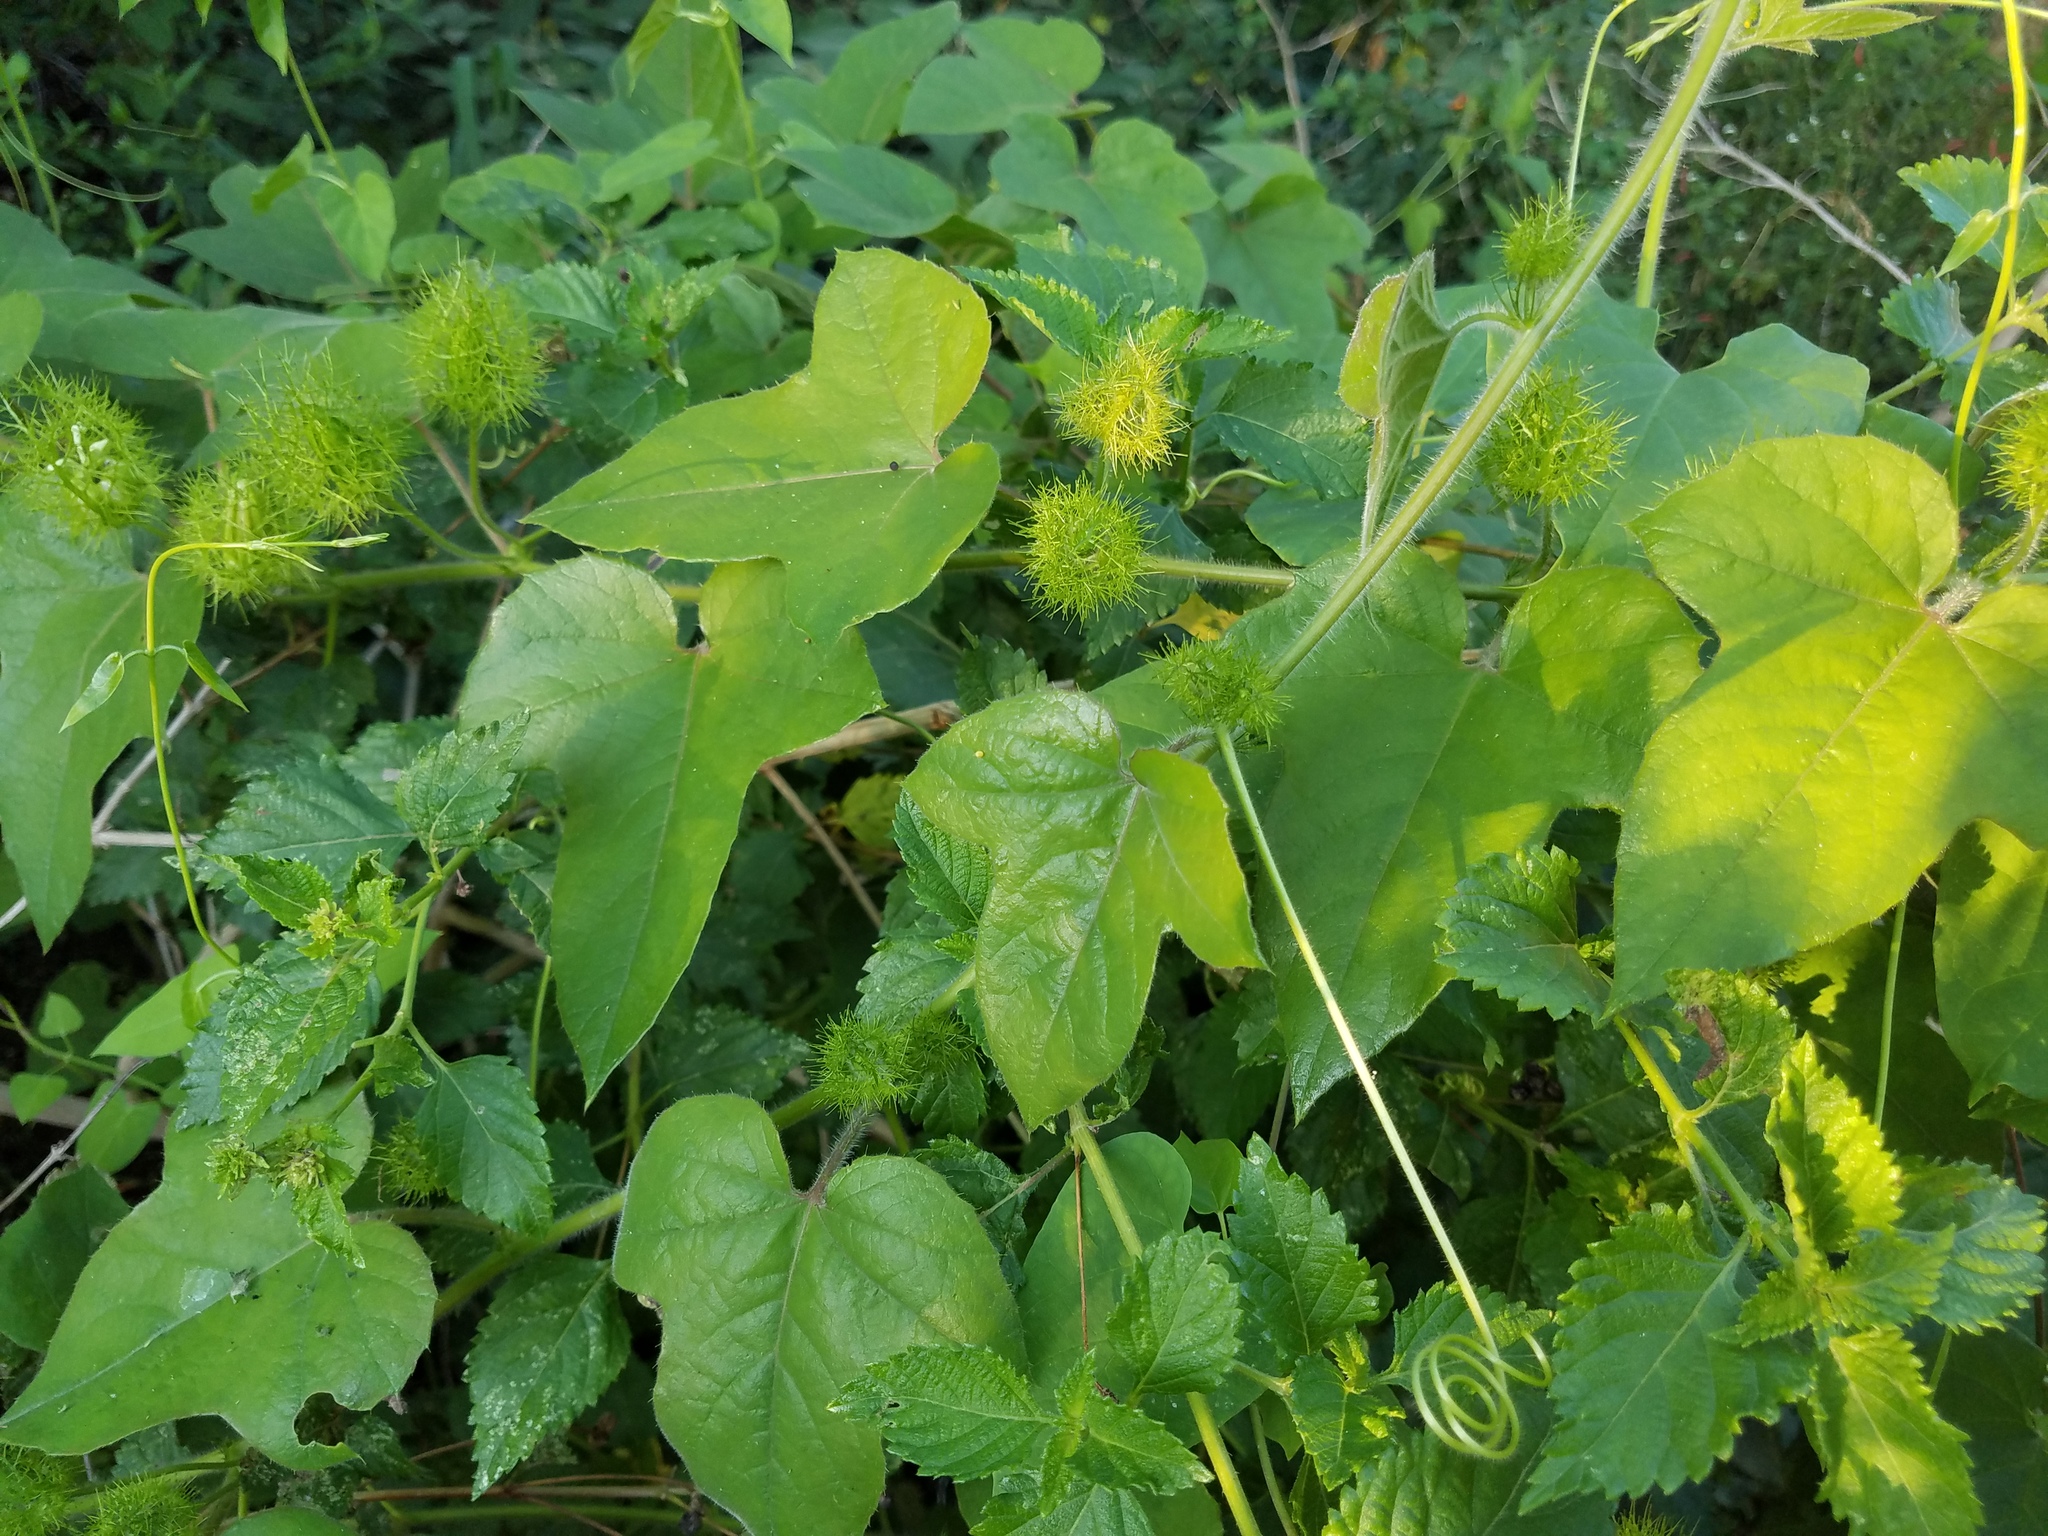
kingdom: Plantae
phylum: Tracheophyta
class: Magnoliopsida
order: Malpighiales
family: Passifloraceae
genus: Passiflora
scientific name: Passiflora
